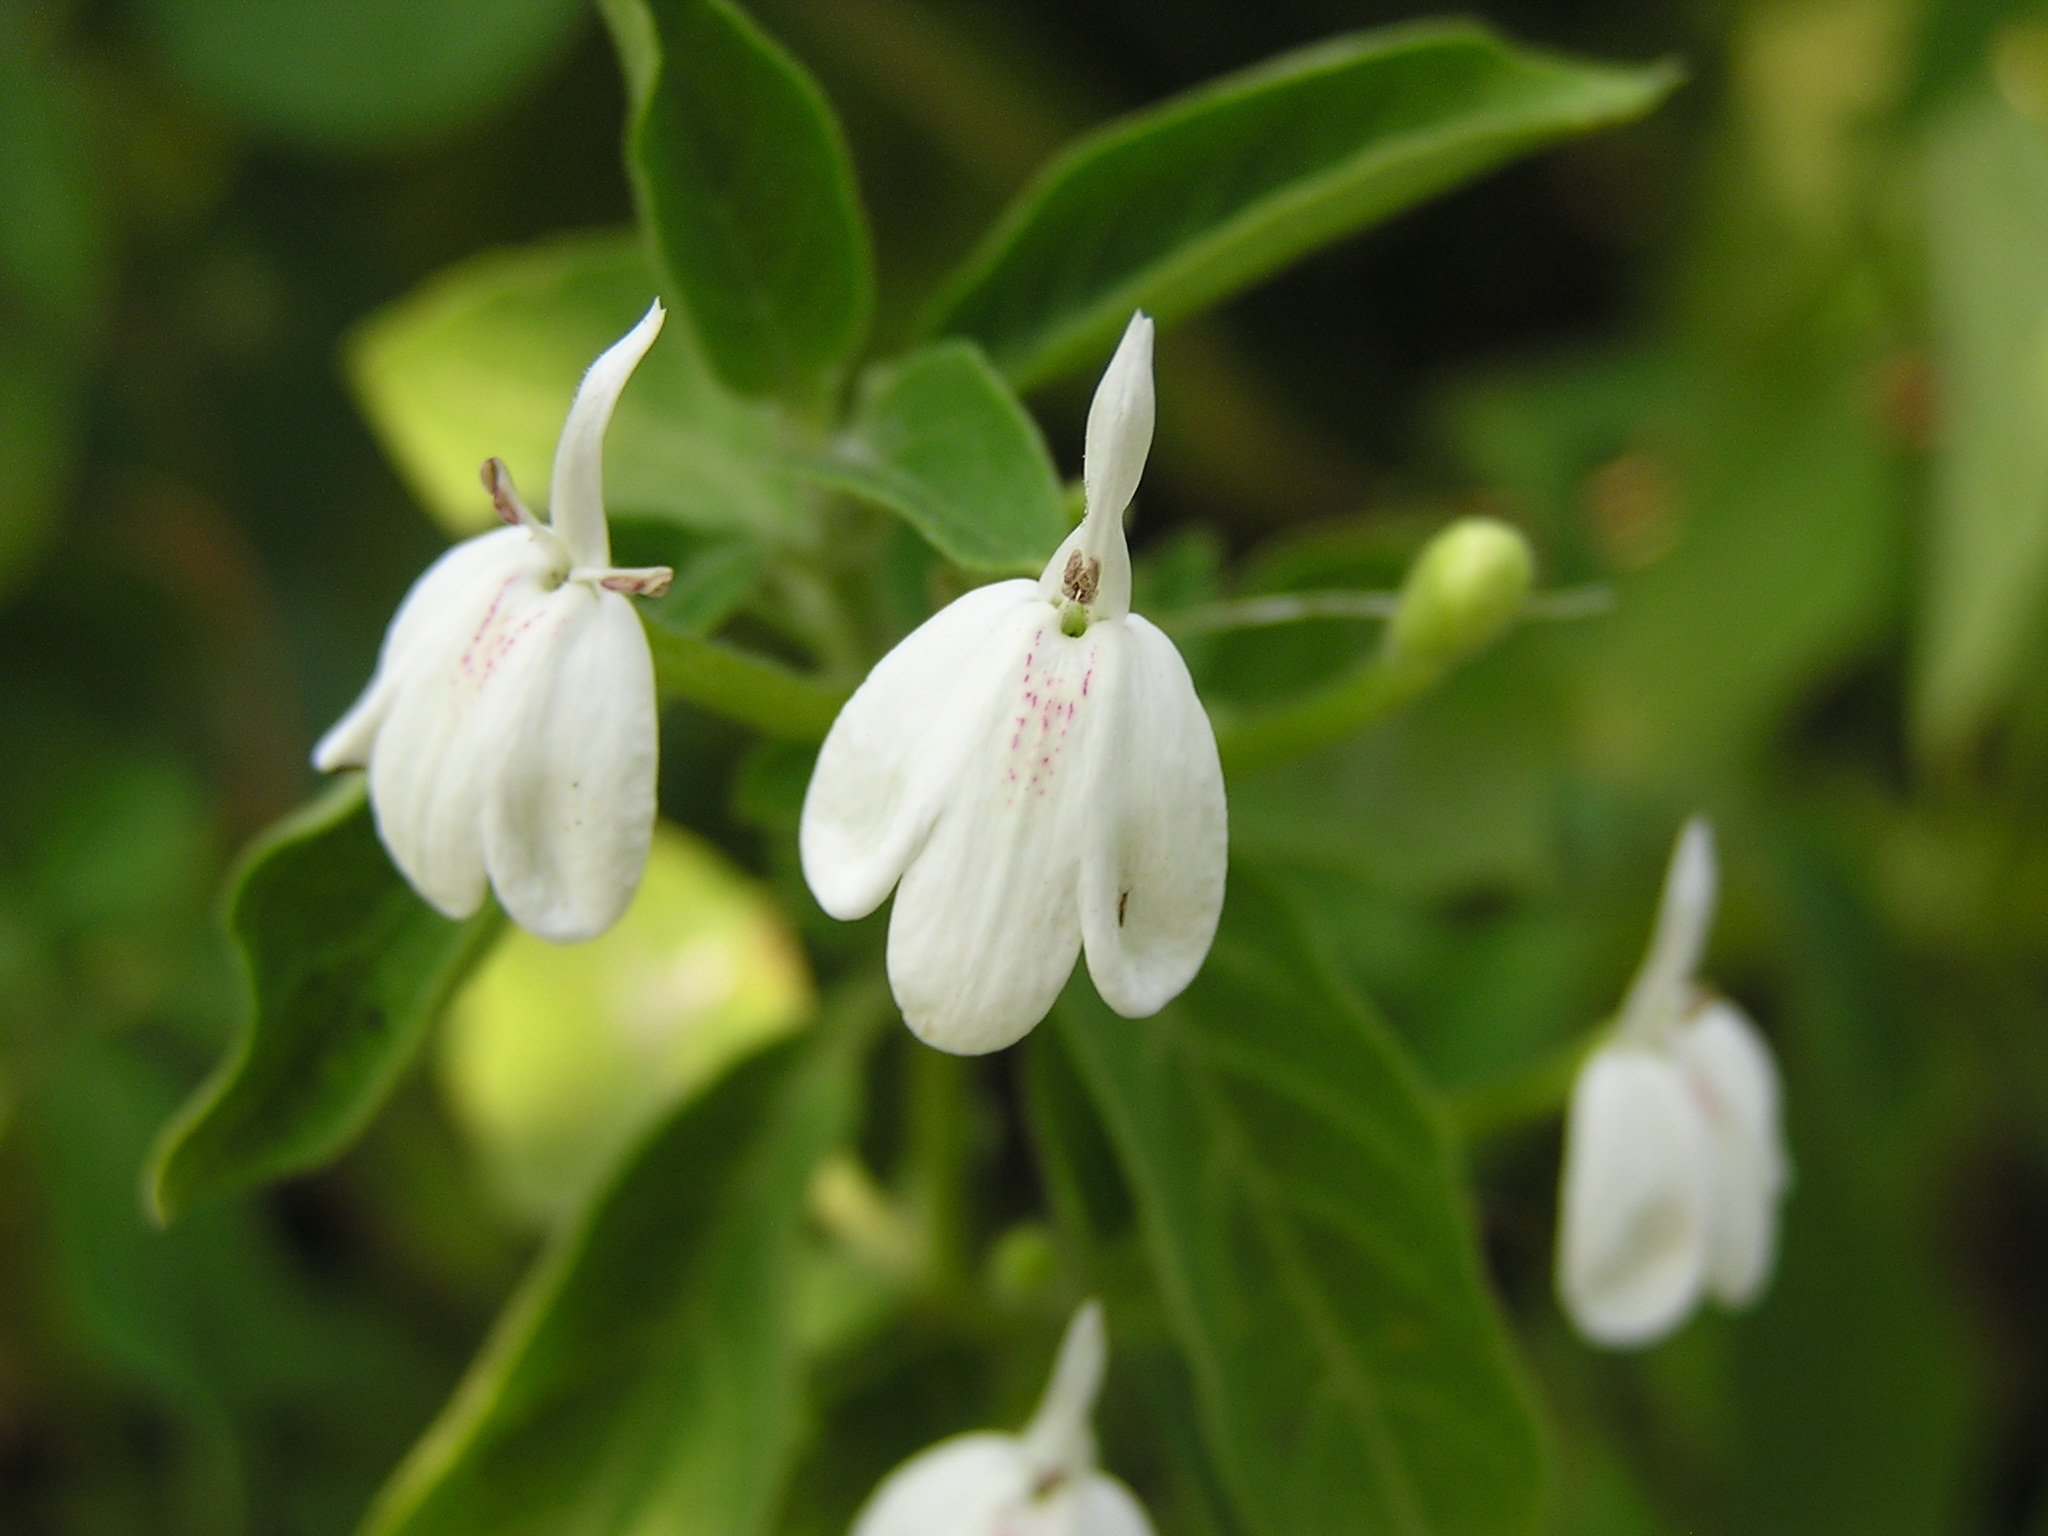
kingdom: Plantae
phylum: Tracheophyta
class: Magnoliopsida
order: Lamiales
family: Acanthaceae
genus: Rhinacanthus
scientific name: Rhinacanthus nasutus
